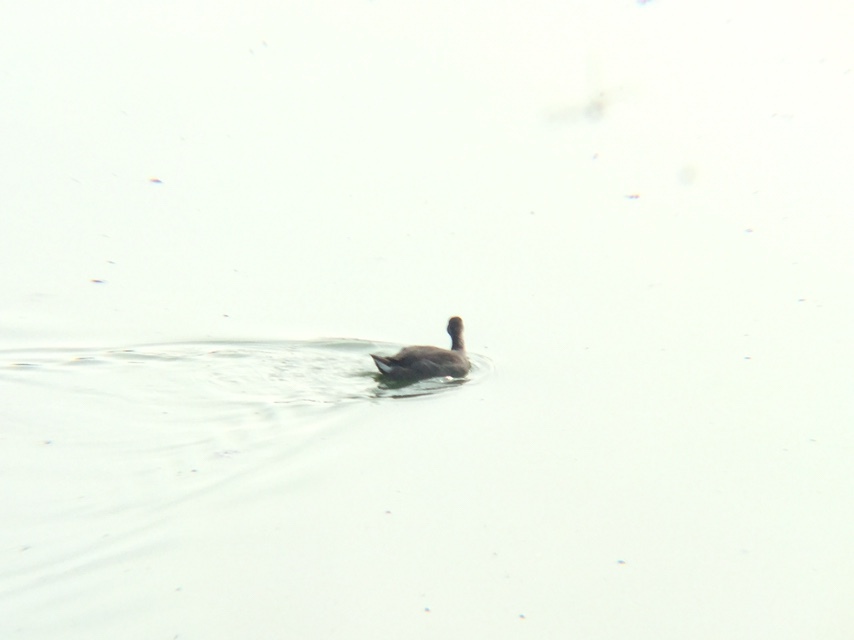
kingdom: Animalia
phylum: Chordata
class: Aves
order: Gruiformes
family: Rallidae
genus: Fulica
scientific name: Fulica americana
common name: American coot
